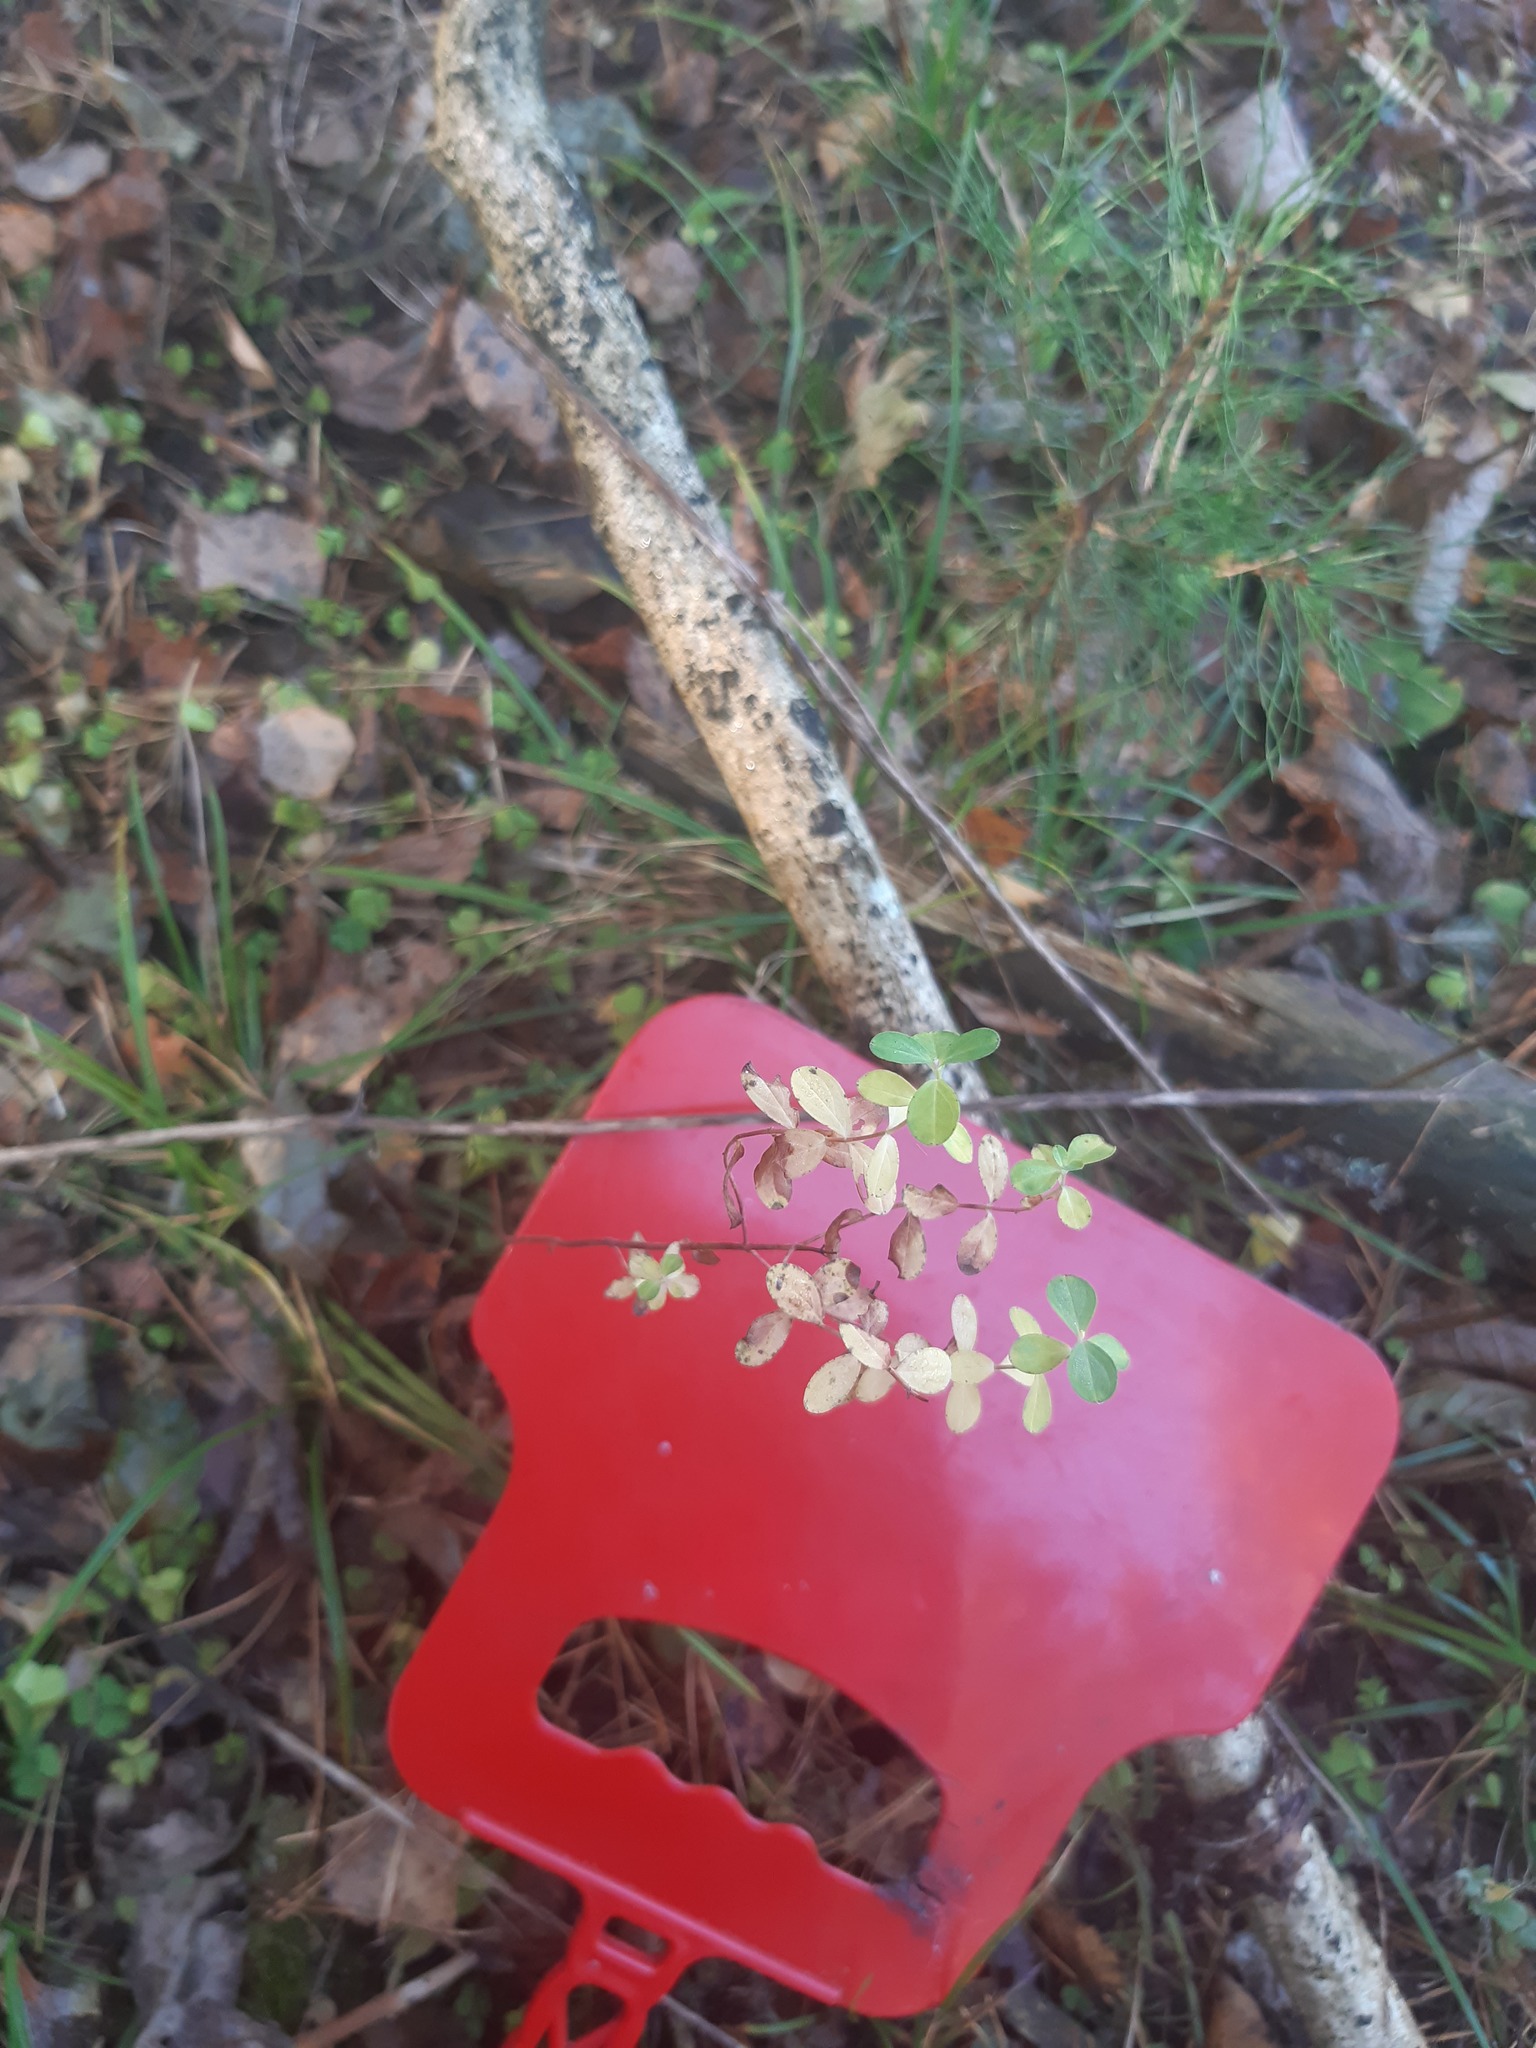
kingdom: Plantae
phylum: Tracheophyta
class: Magnoliopsida
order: Malpighiales
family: Hypericaceae
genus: Hypericum
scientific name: Hypericum perforatum
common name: Common st. johnswort
